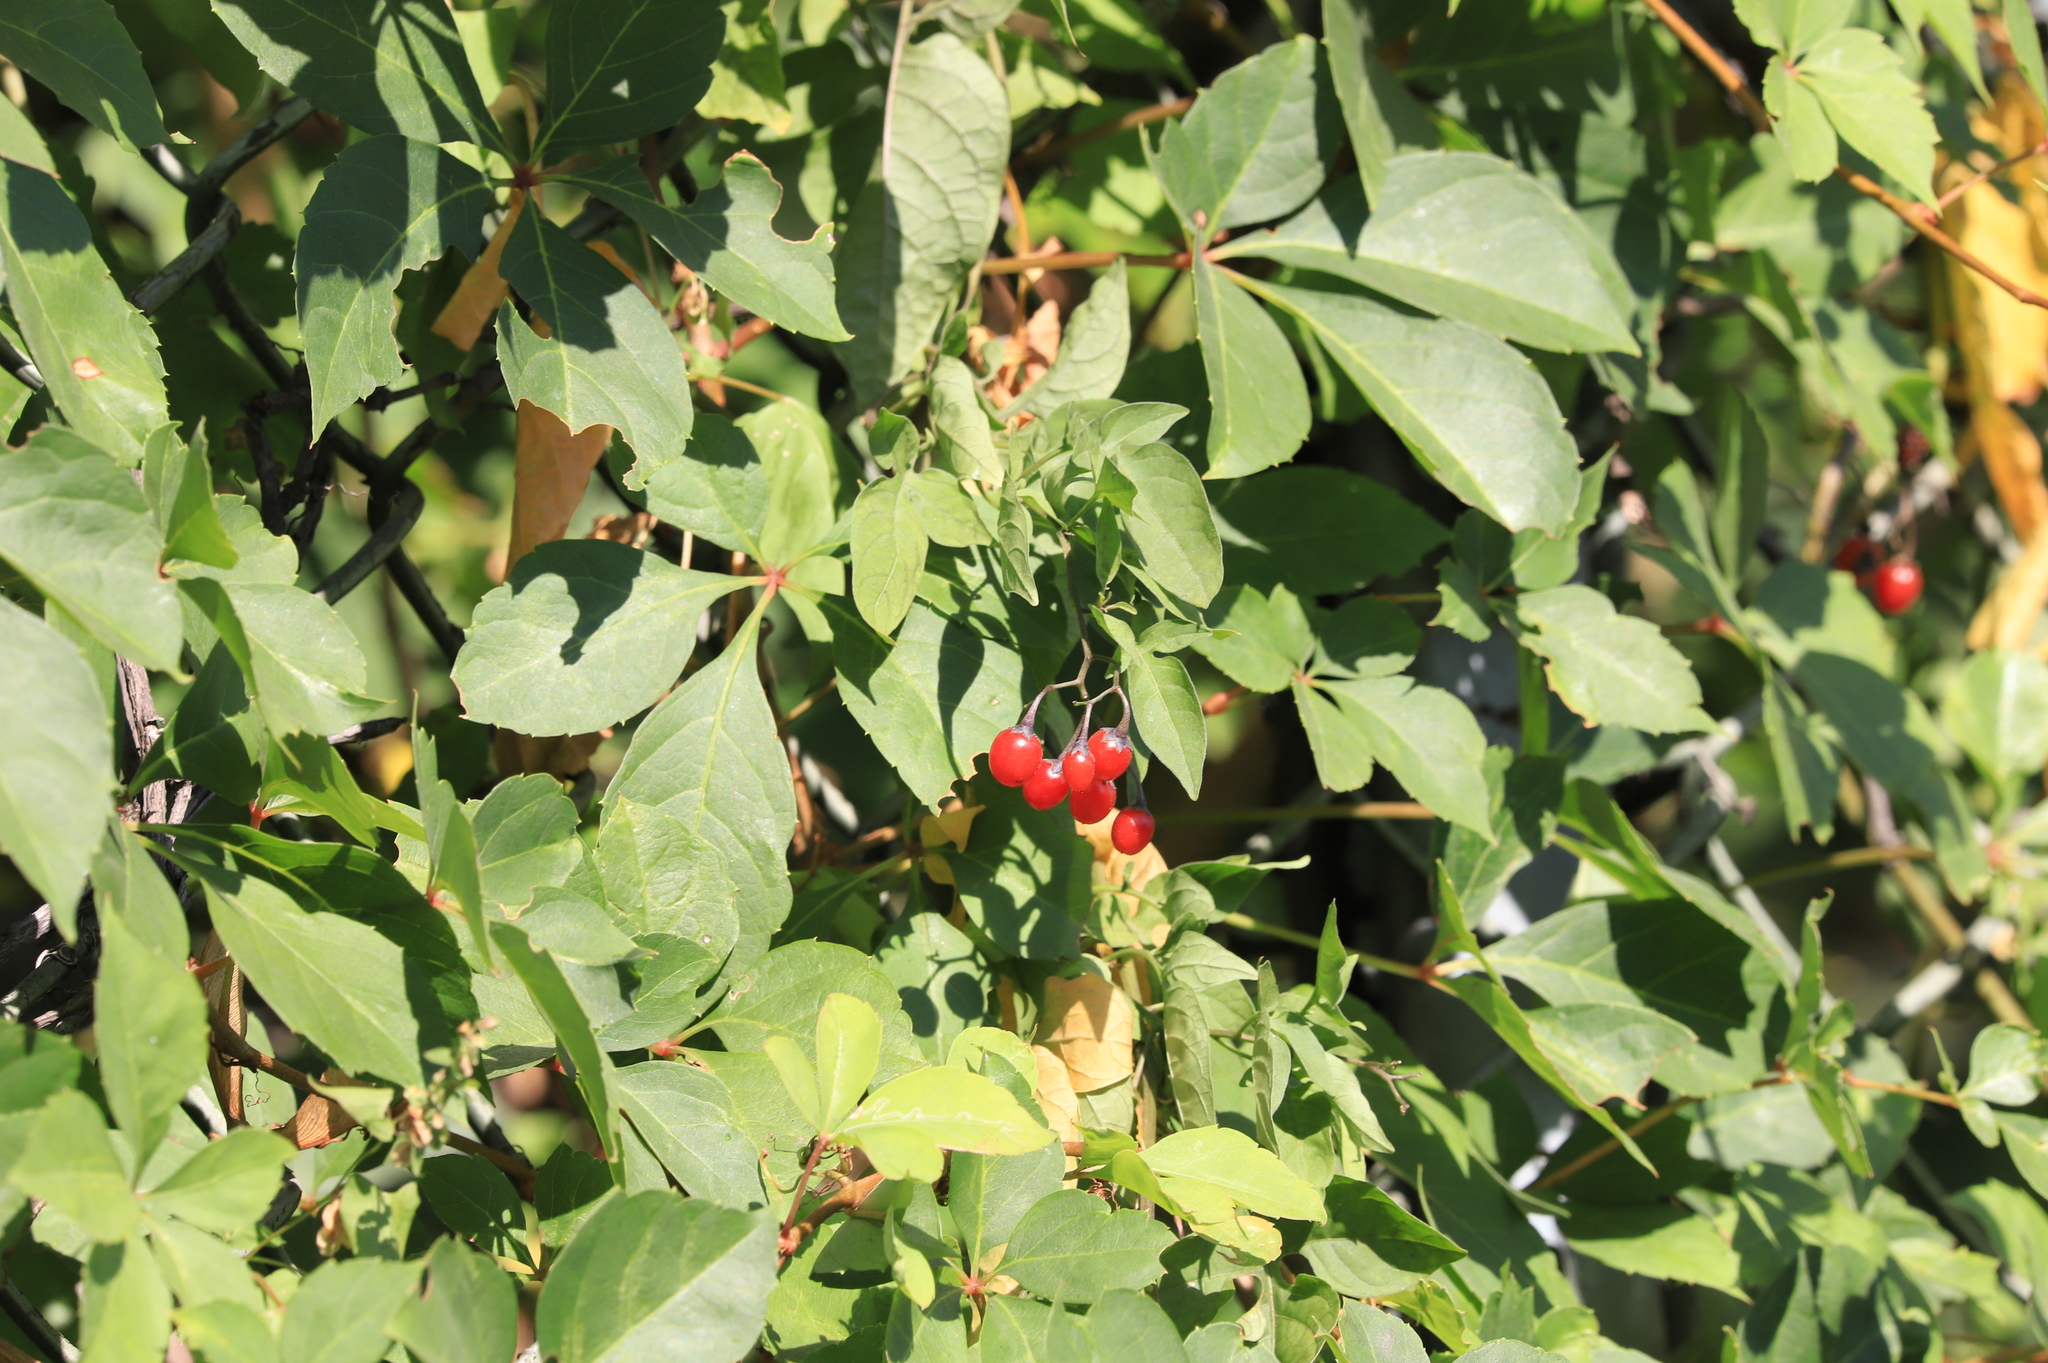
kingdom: Plantae
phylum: Tracheophyta
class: Magnoliopsida
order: Solanales
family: Solanaceae
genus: Solanum
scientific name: Solanum dulcamara
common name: Climbing nightshade
